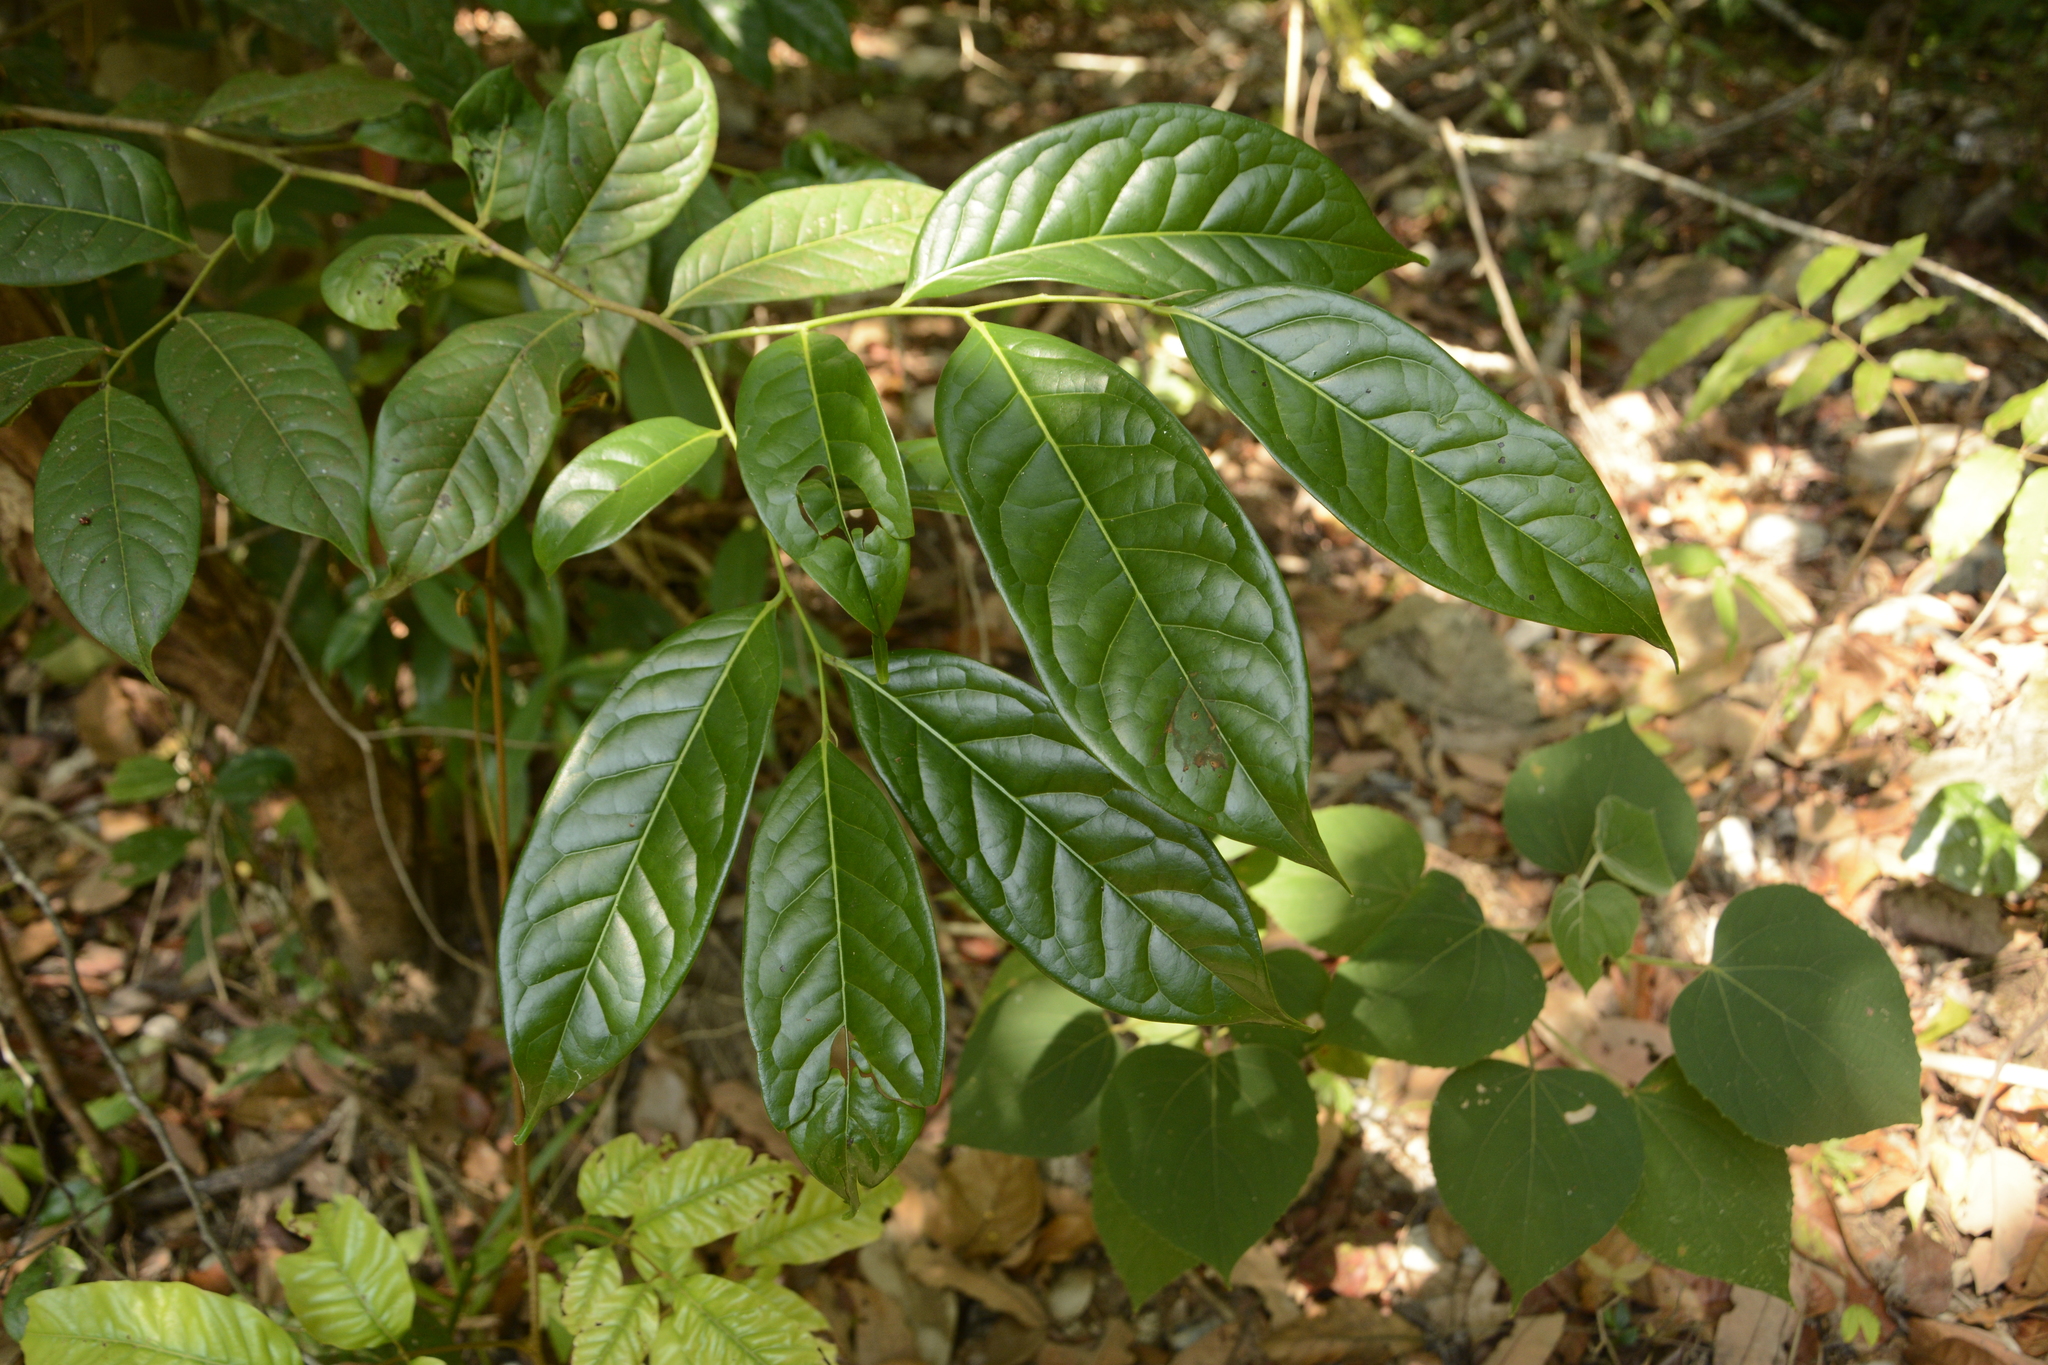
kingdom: Plantae
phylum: Tracheophyta
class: Magnoliopsida
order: Ericales
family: Ebenaceae
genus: Diospyros
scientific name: Diospyros sylvatica
